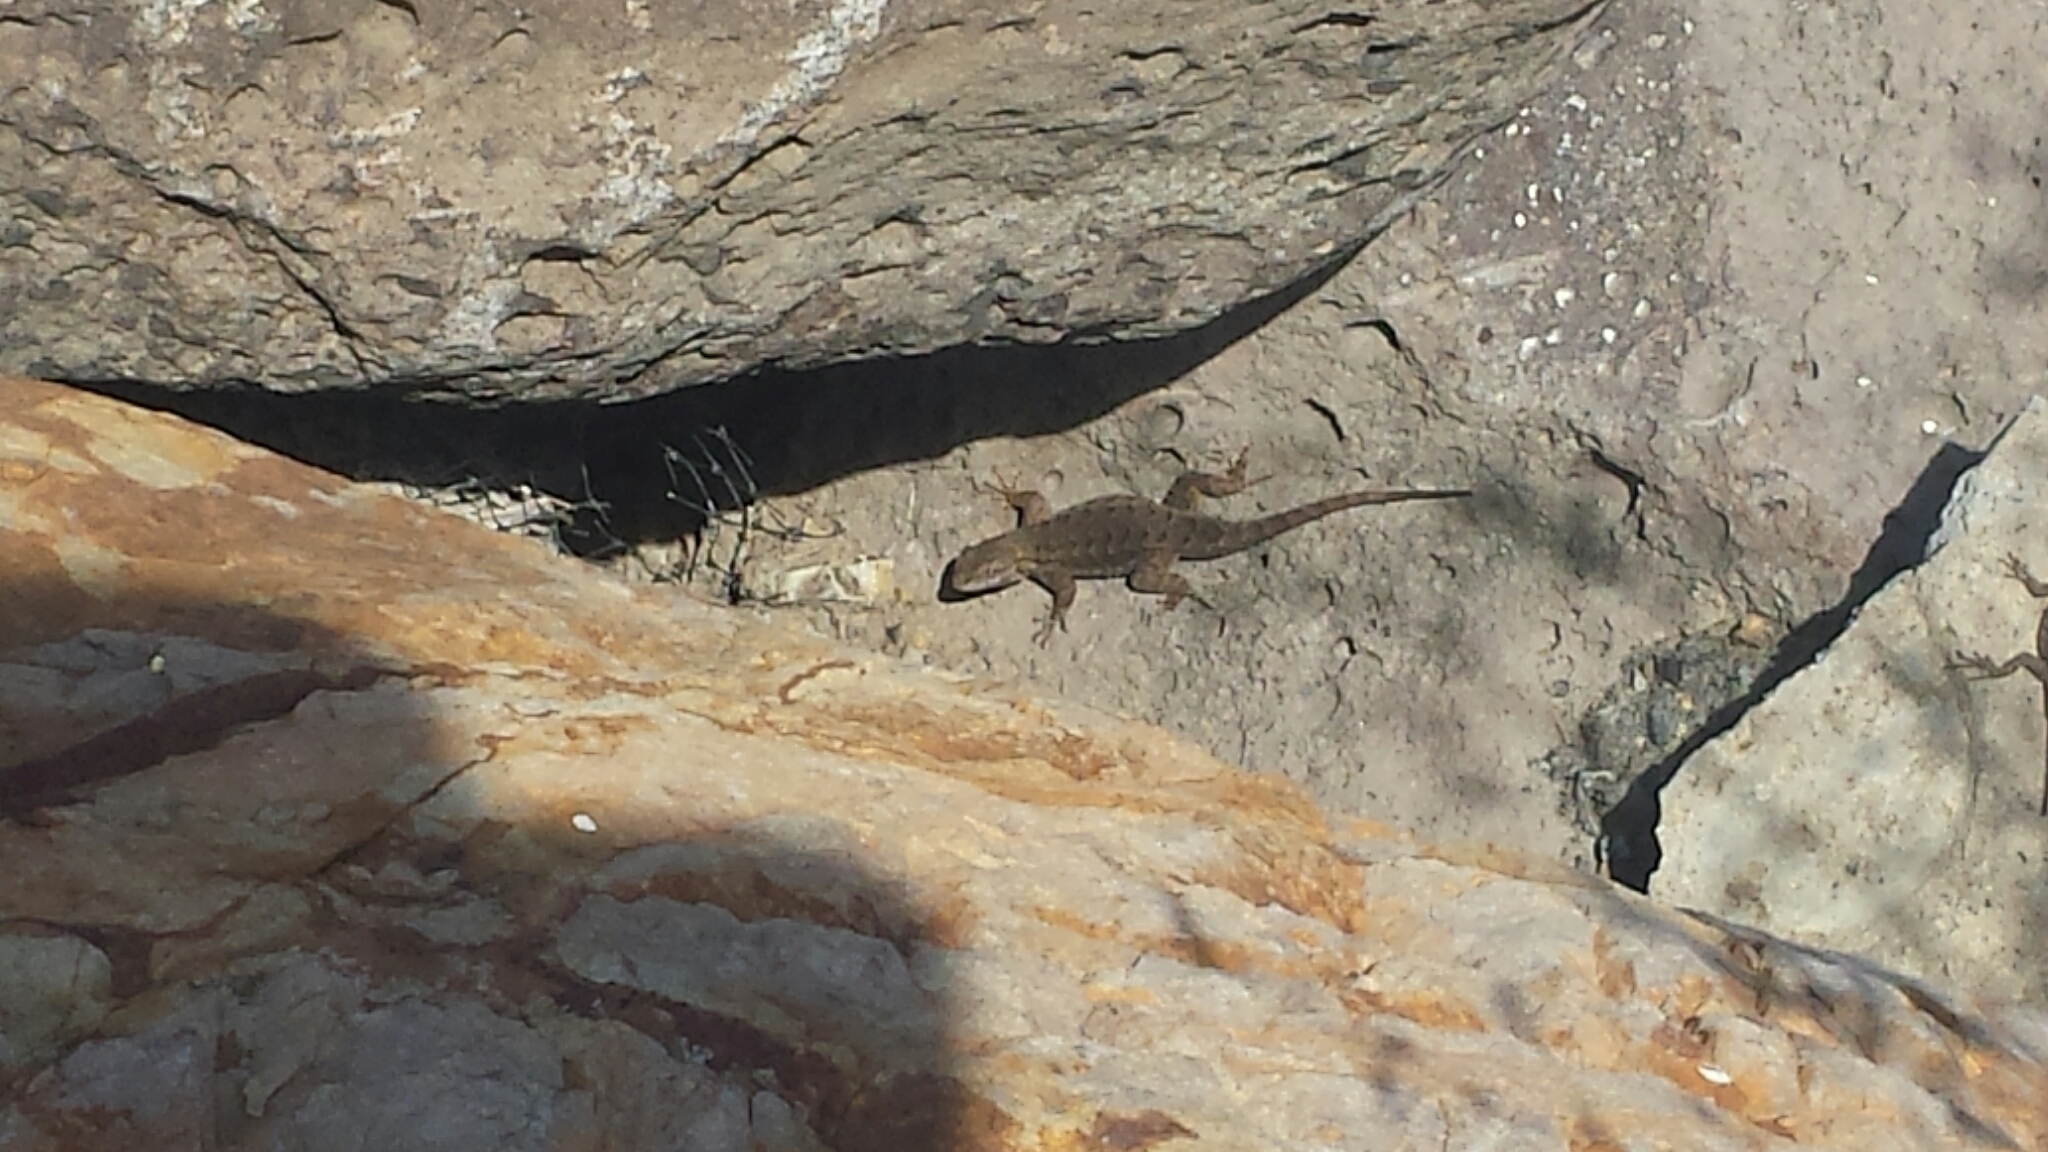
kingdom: Animalia
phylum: Chordata
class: Squamata
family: Phrynosomatidae
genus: Sceloporus
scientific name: Sceloporus occidentalis
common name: Western fence lizard
